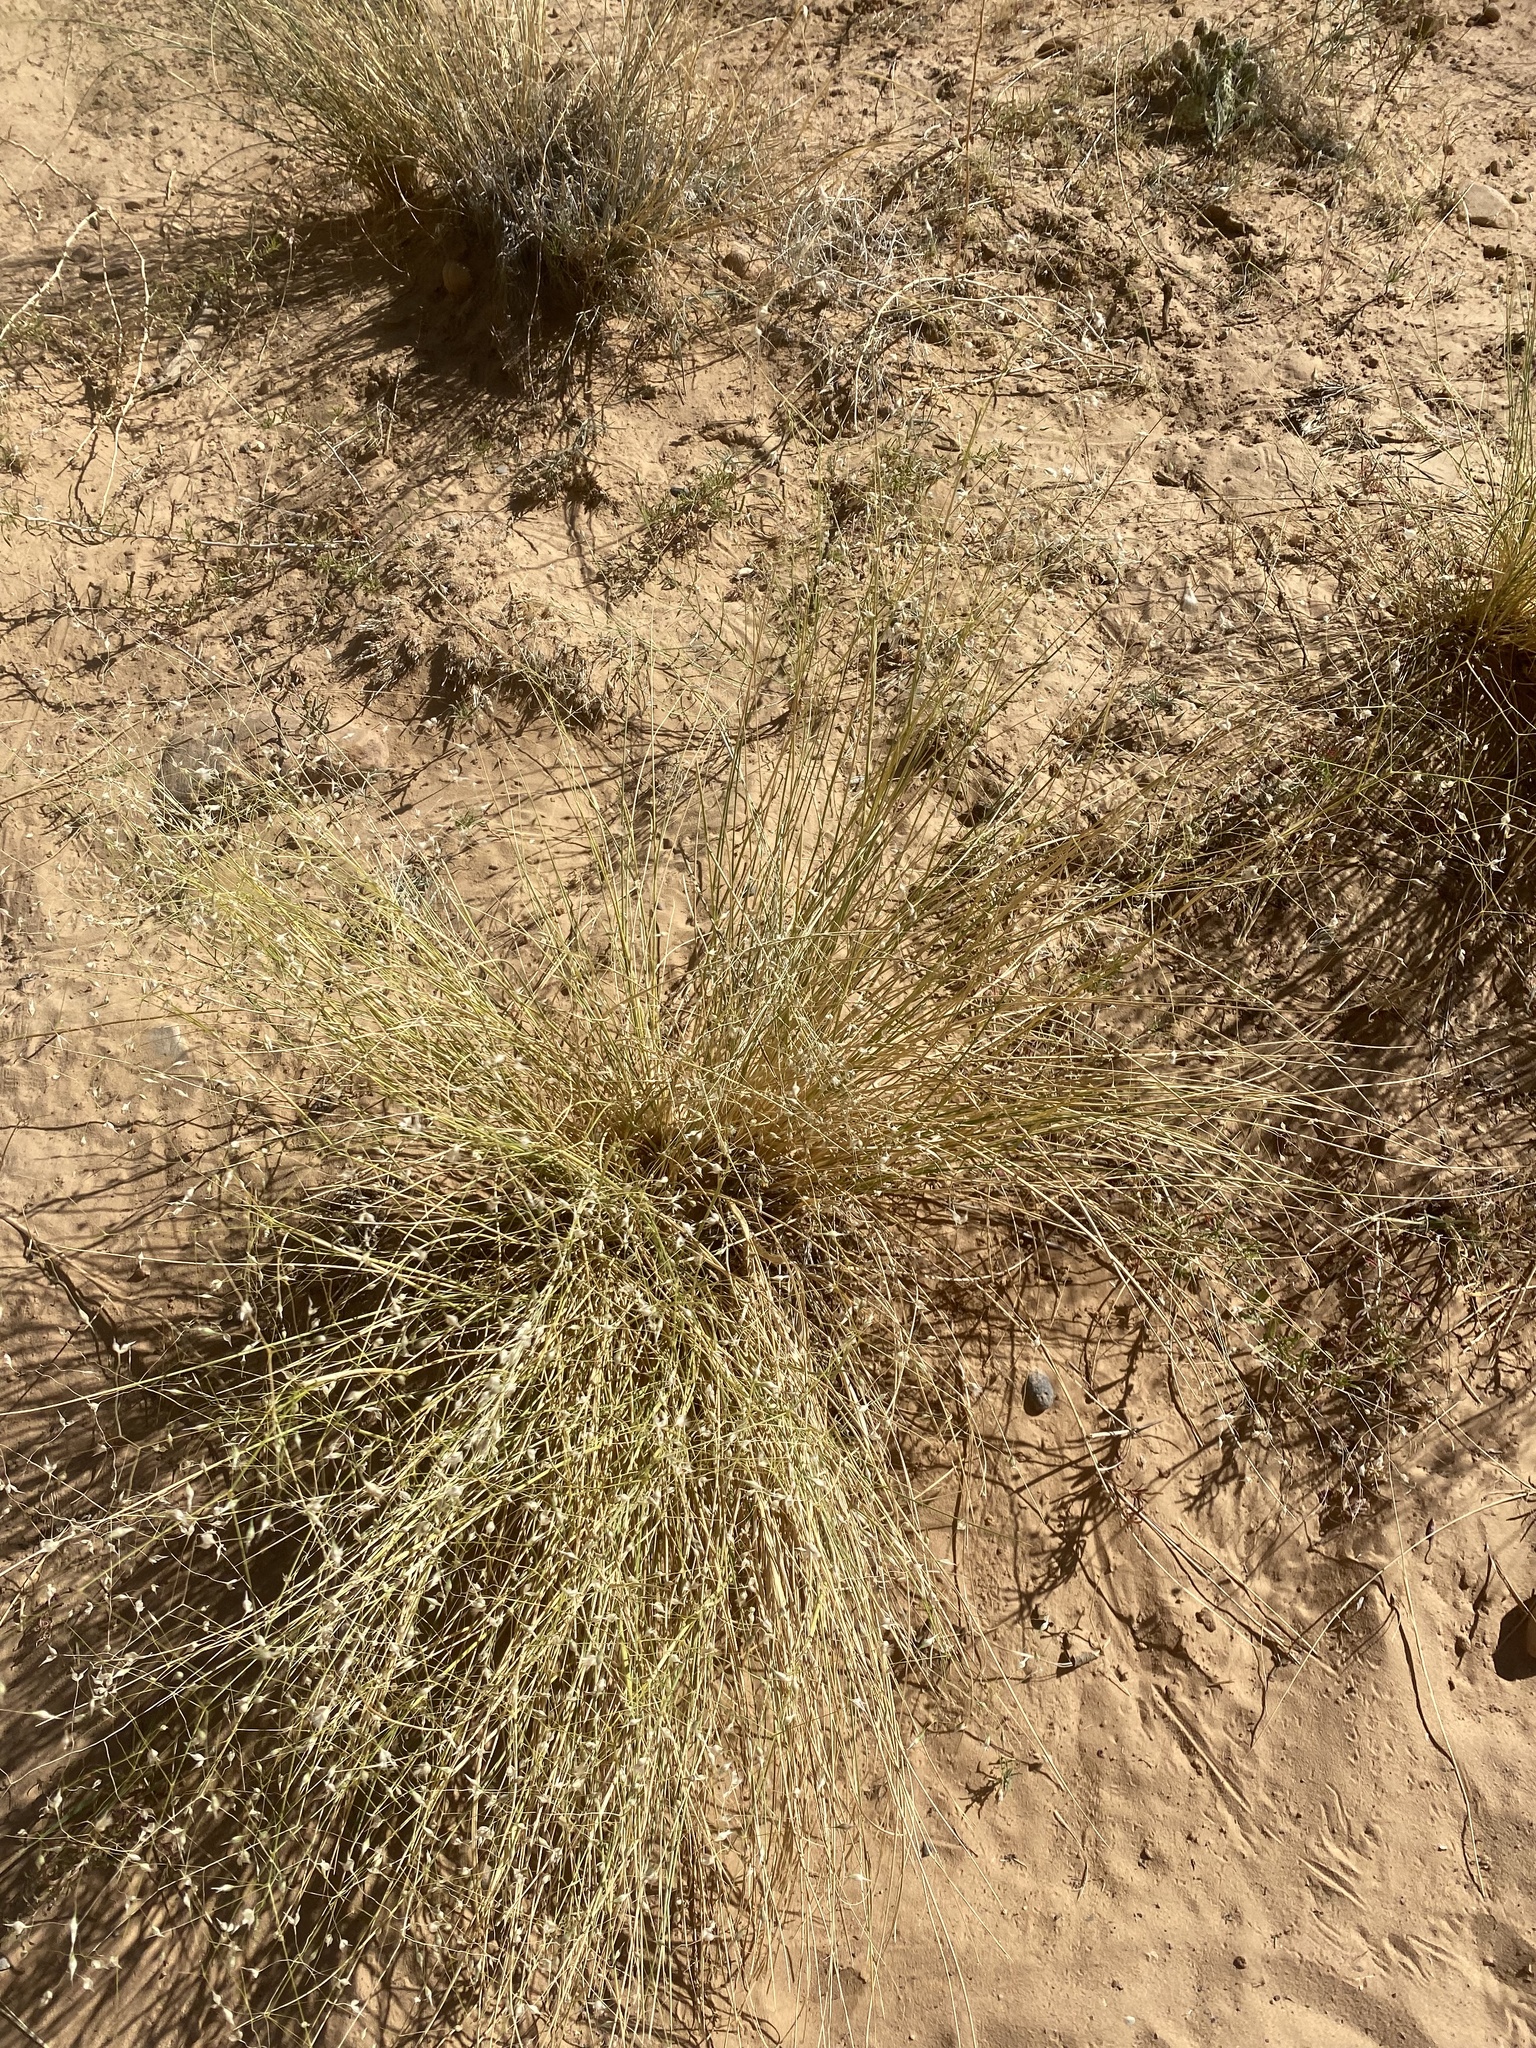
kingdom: Plantae
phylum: Tracheophyta
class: Liliopsida
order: Poales
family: Poaceae
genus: Eriocoma
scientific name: Eriocoma hymenoides
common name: Indian mountain ricegrass
